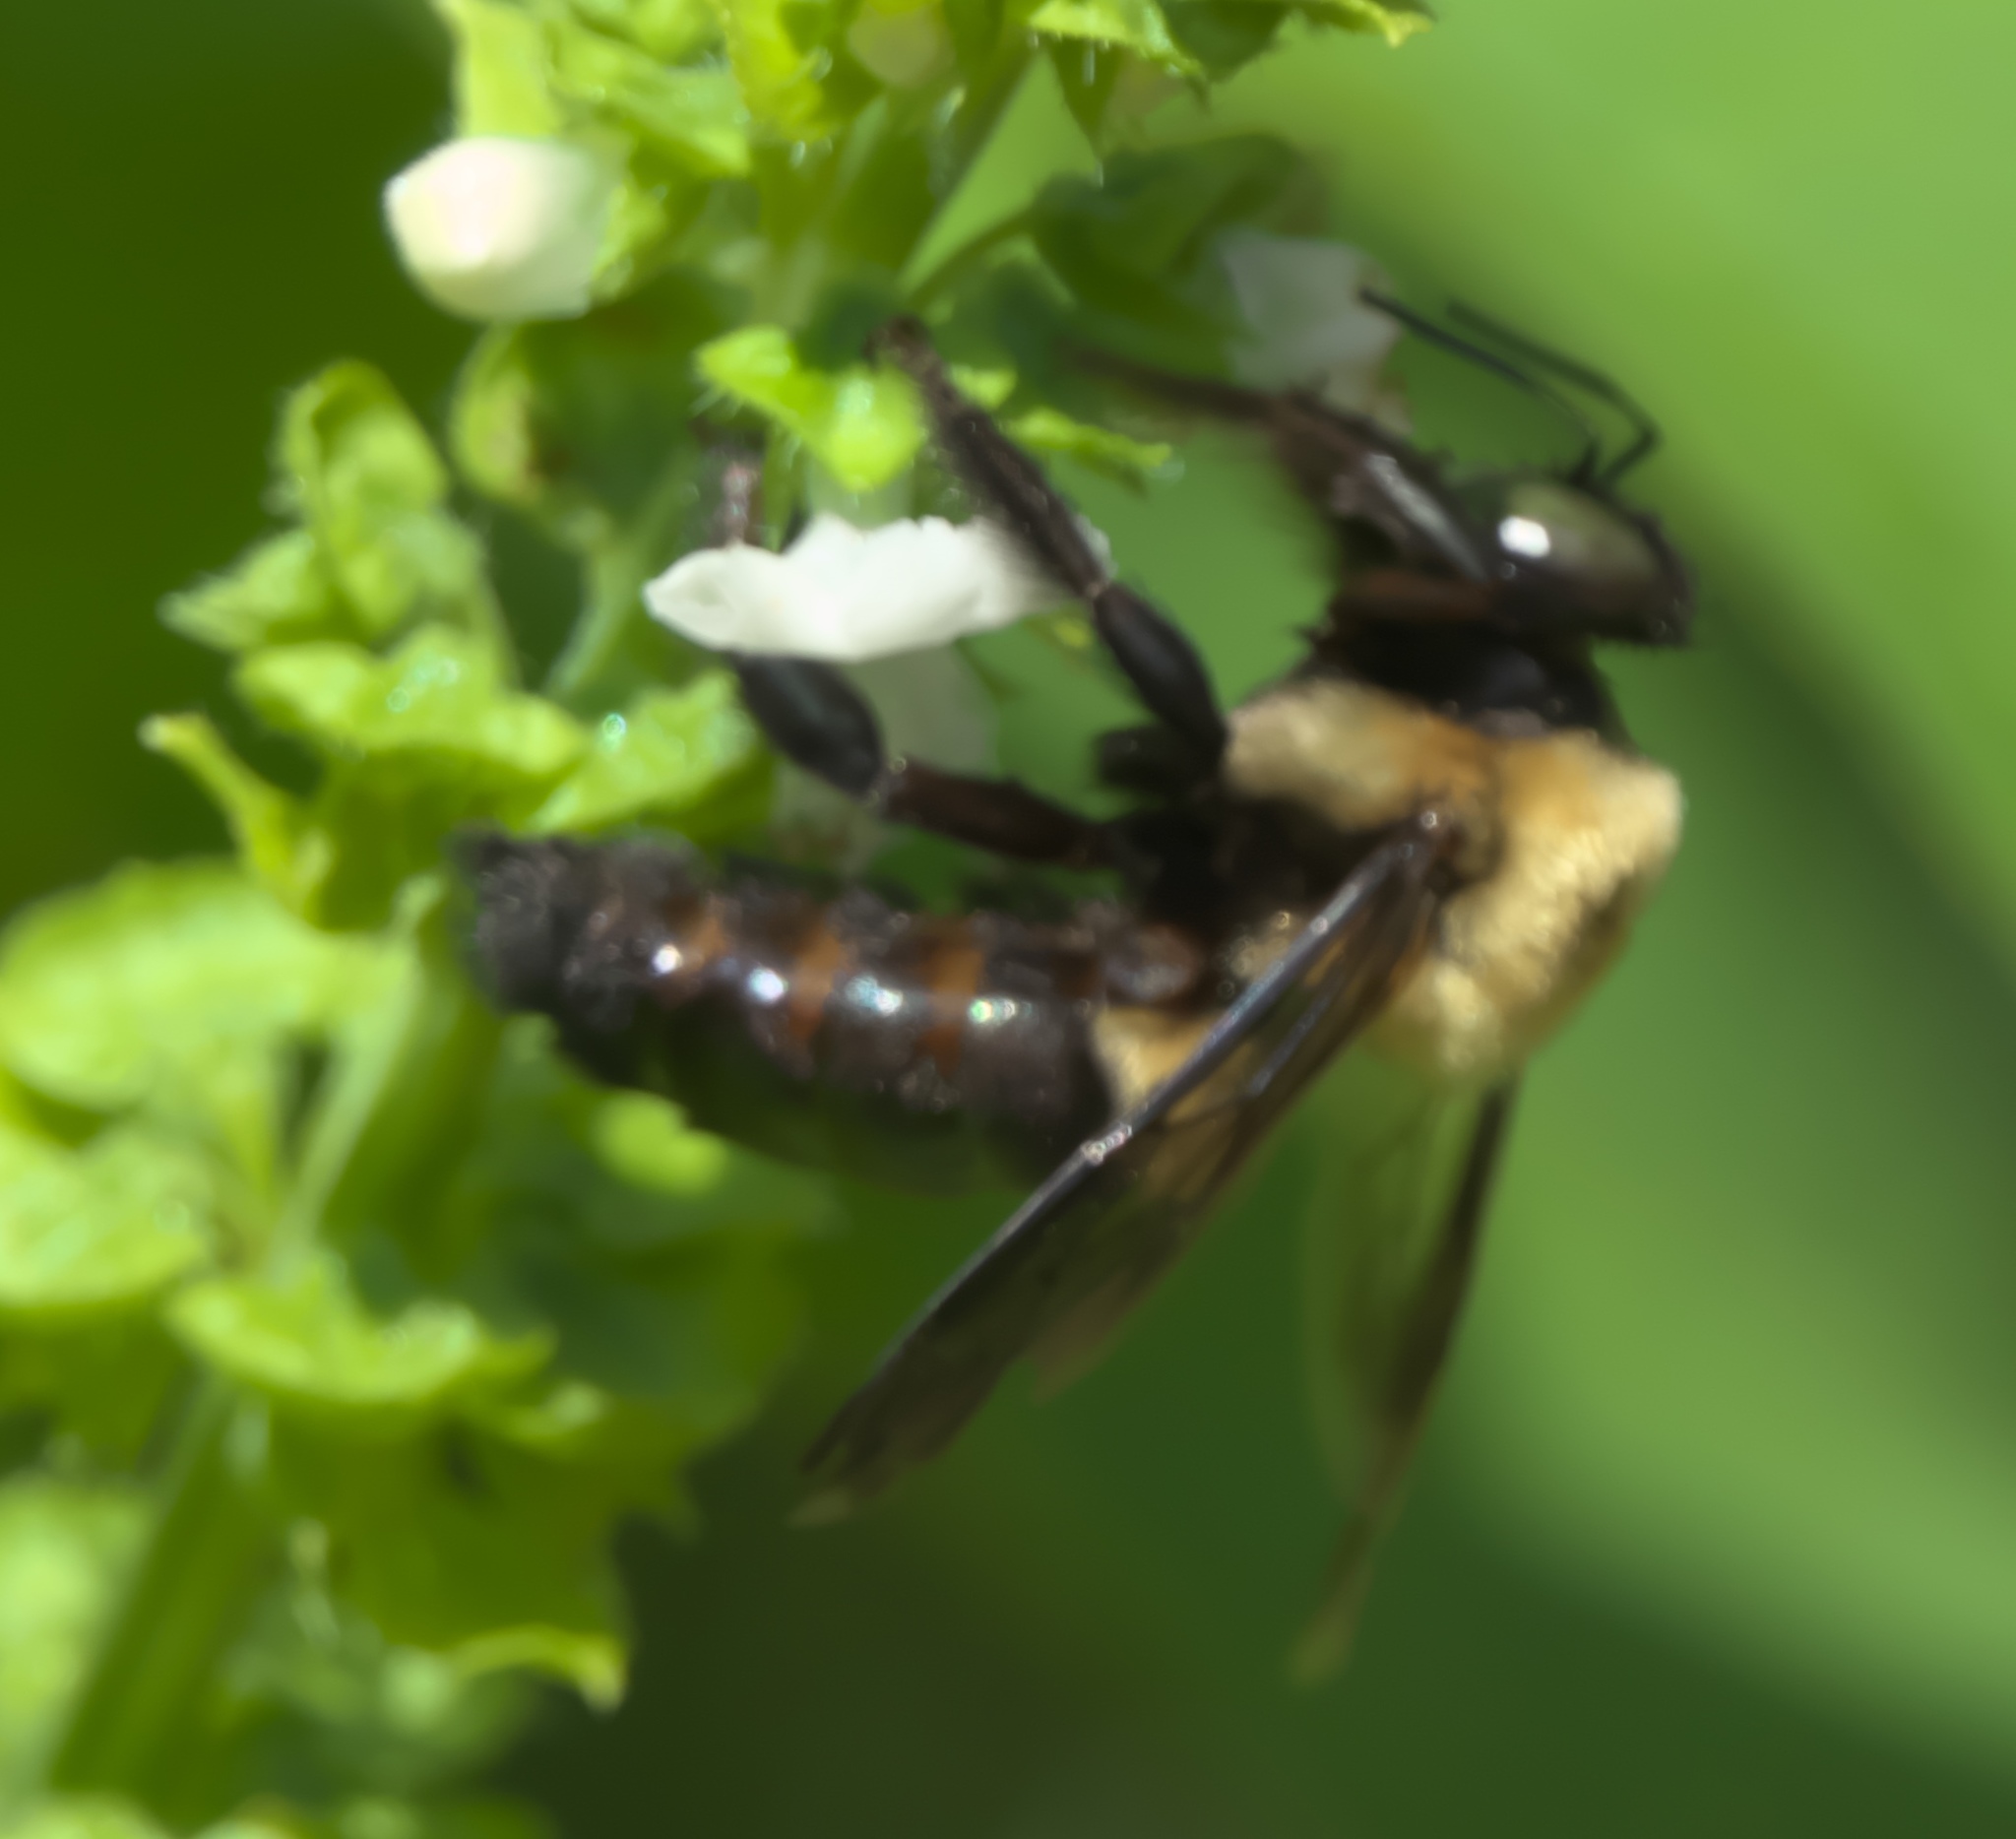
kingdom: Animalia
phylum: Arthropoda
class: Insecta
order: Hymenoptera
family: Apidae
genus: Xylocopa
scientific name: Xylocopa virginica
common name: Carpenter bee
